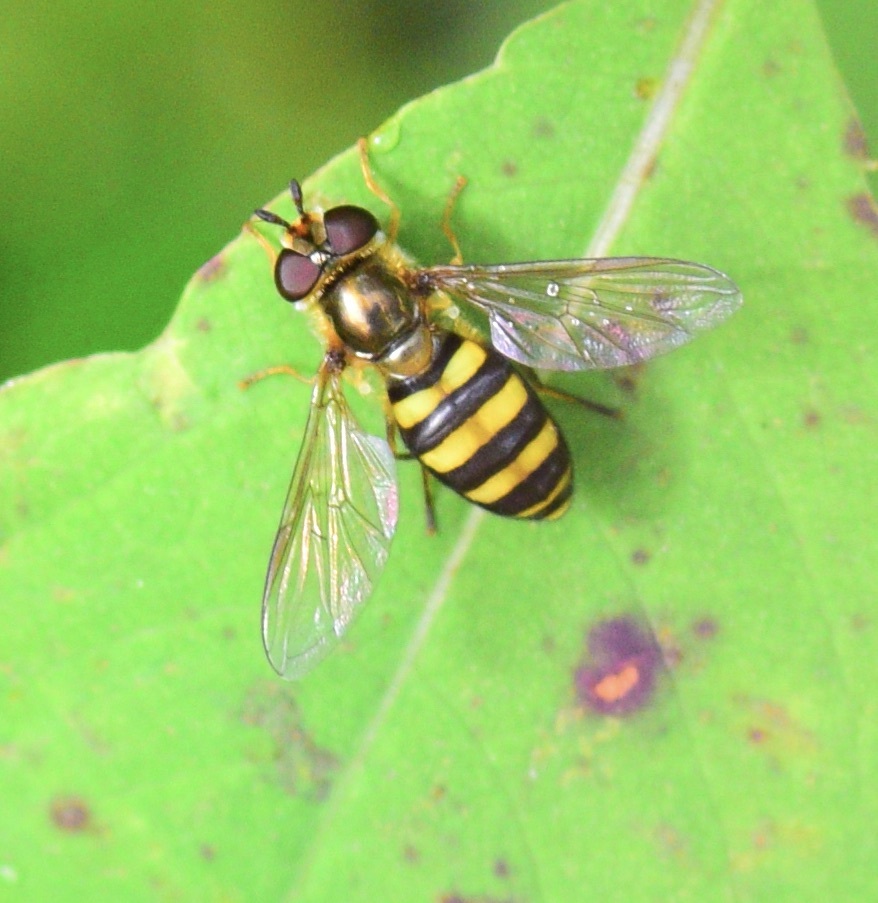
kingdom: Animalia
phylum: Arthropoda
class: Insecta
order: Diptera
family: Syrphidae
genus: Eupeodes
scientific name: Eupeodes
